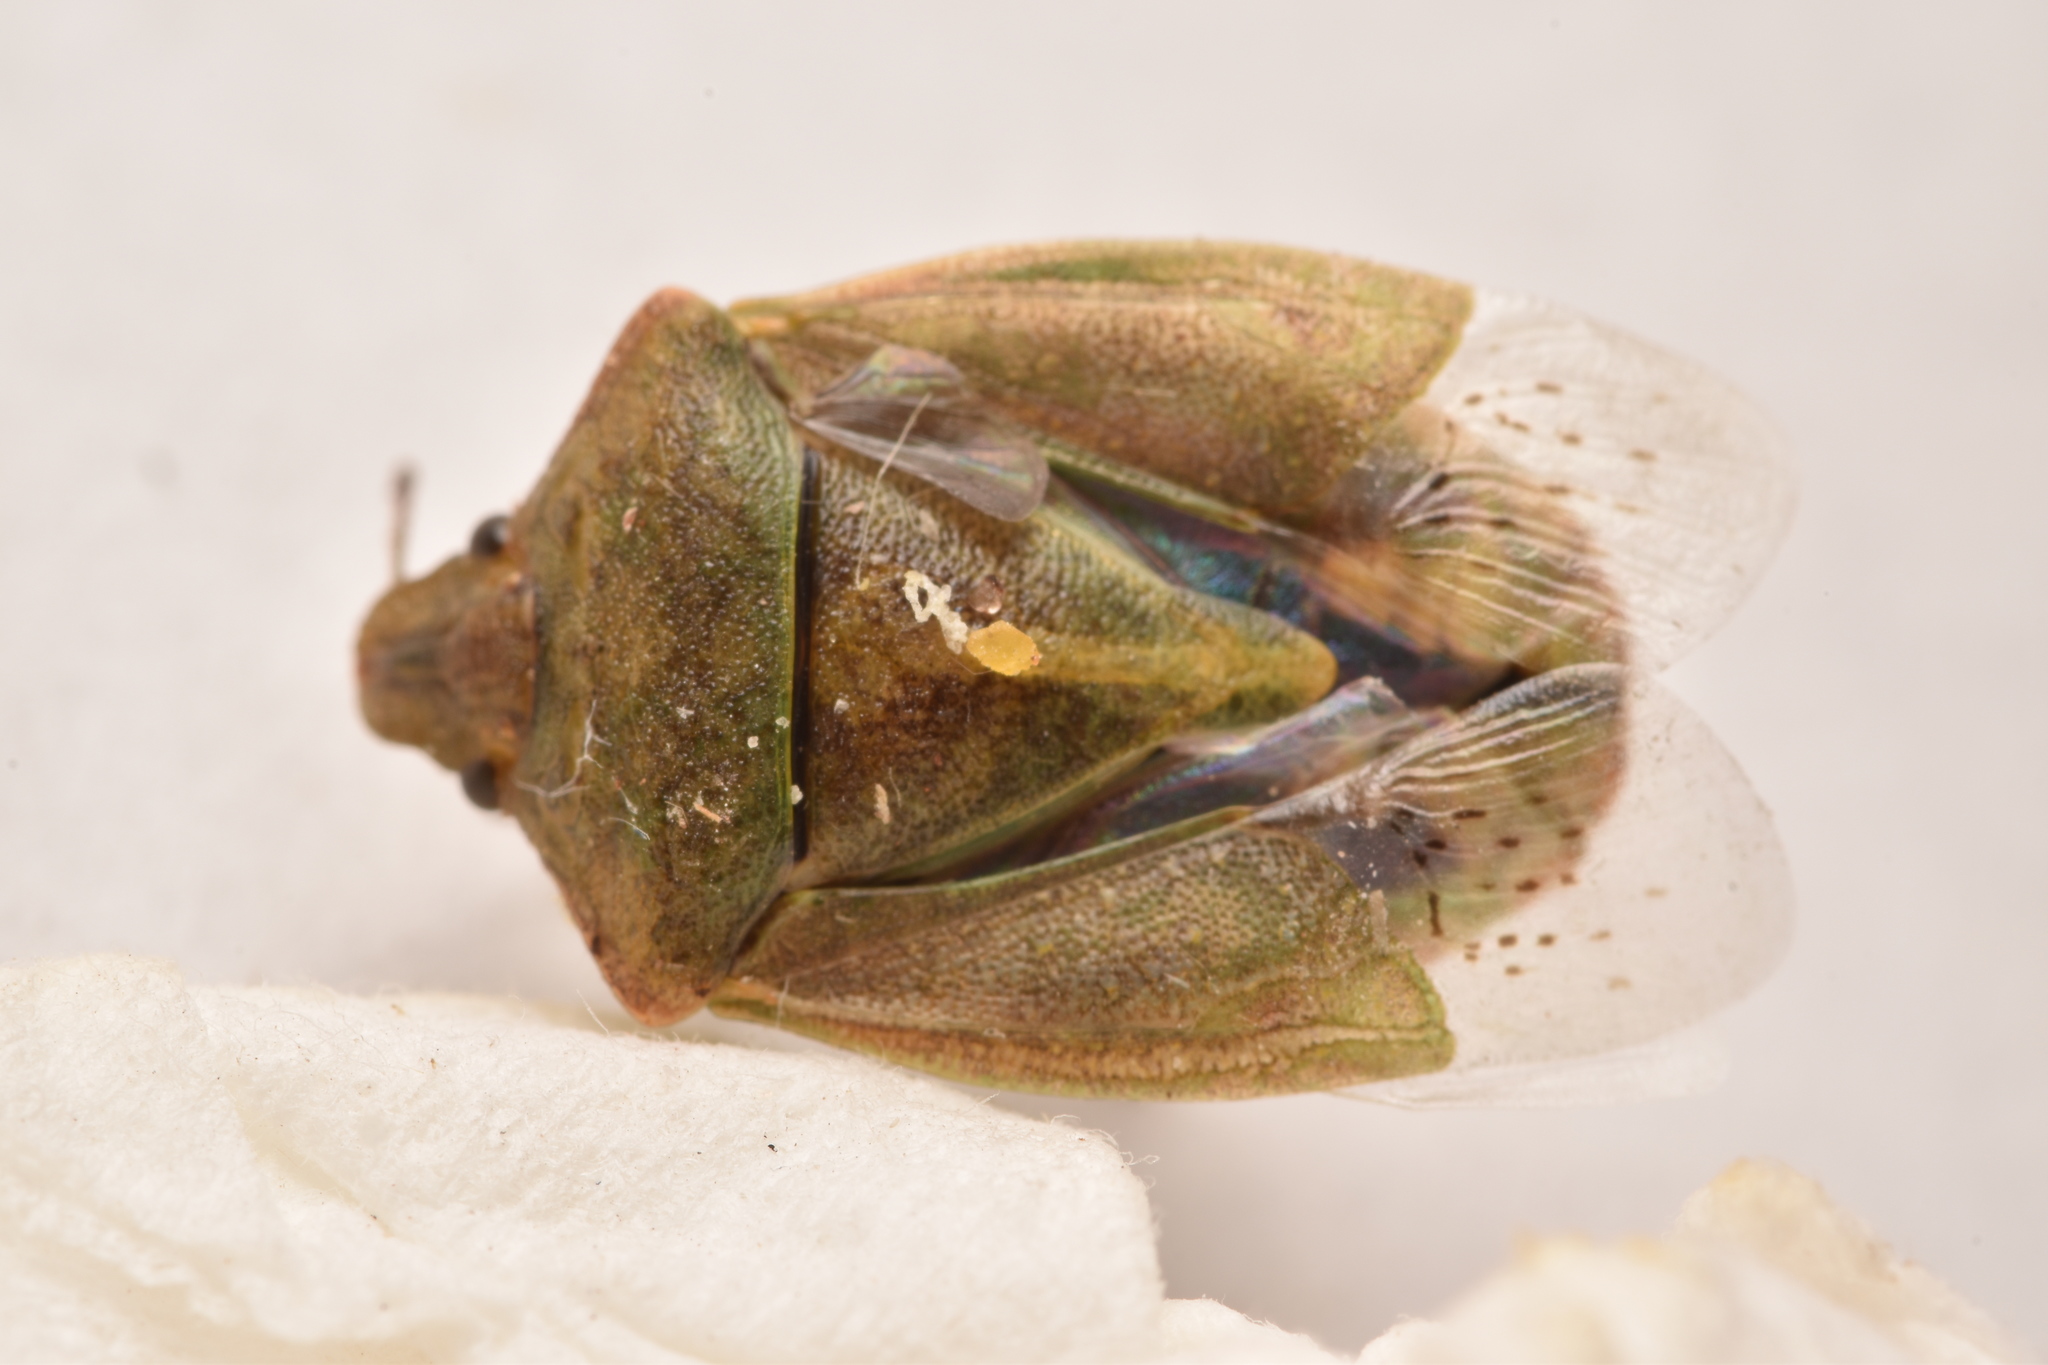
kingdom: Animalia
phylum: Arthropoda
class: Insecta
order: Hemiptera
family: Pentatomidae
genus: Thyanta
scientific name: Thyanta accerra
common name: Stink bug
